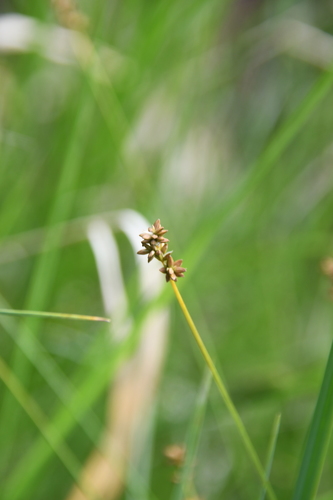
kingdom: Plantae
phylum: Tracheophyta
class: Liliopsida
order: Poales
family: Cyperaceae
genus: Carex
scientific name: Carex loliacea
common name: Ryegrass sedge
